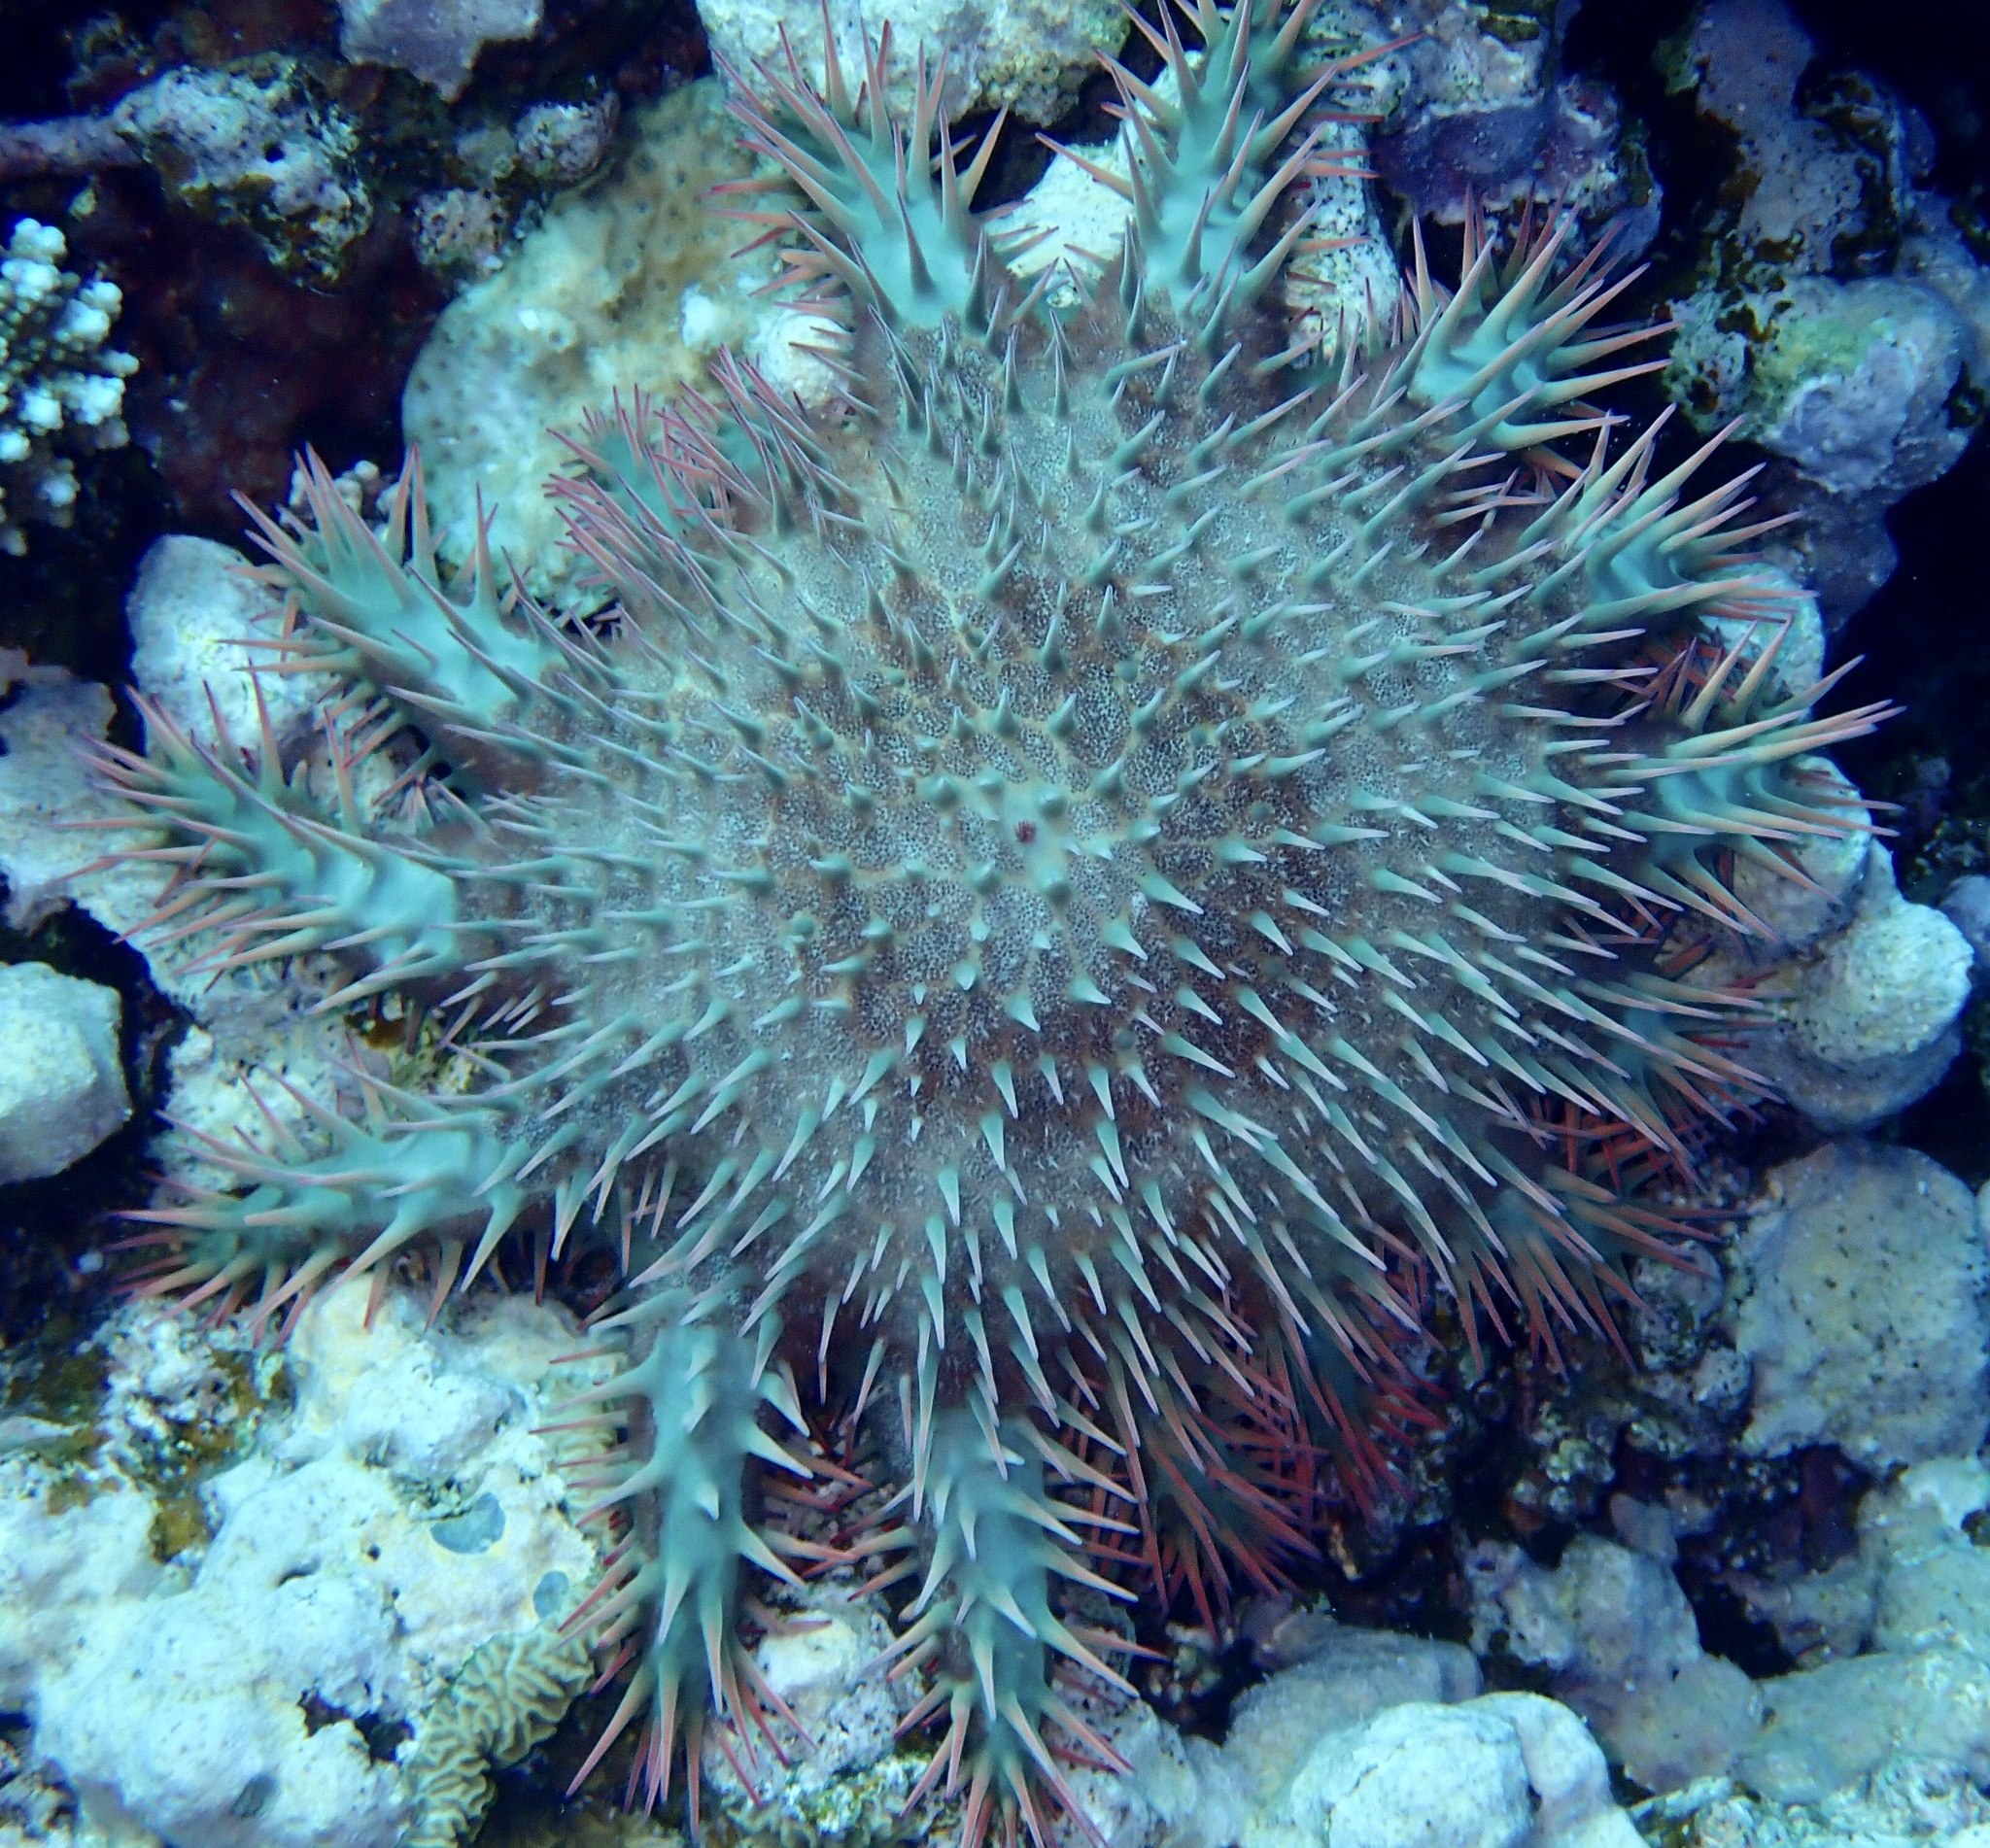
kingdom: Animalia
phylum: Echinodermata
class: Asteroidea
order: Valvatida
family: Acanthasteridae
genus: Acanthaster
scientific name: Acanthaster benziei
